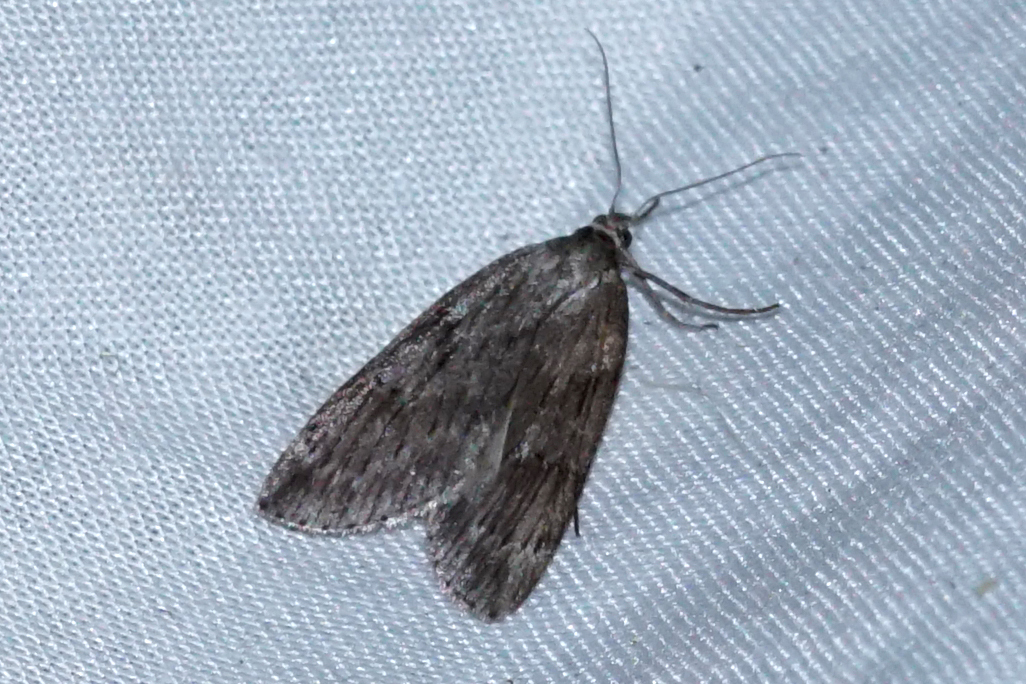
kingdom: Animalia
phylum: Arthropoda
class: Insecta
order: Lepidoptera
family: Geometridae
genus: Pachycnemia
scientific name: Pachycnemia hippocastanaria
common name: Horse chestnut
